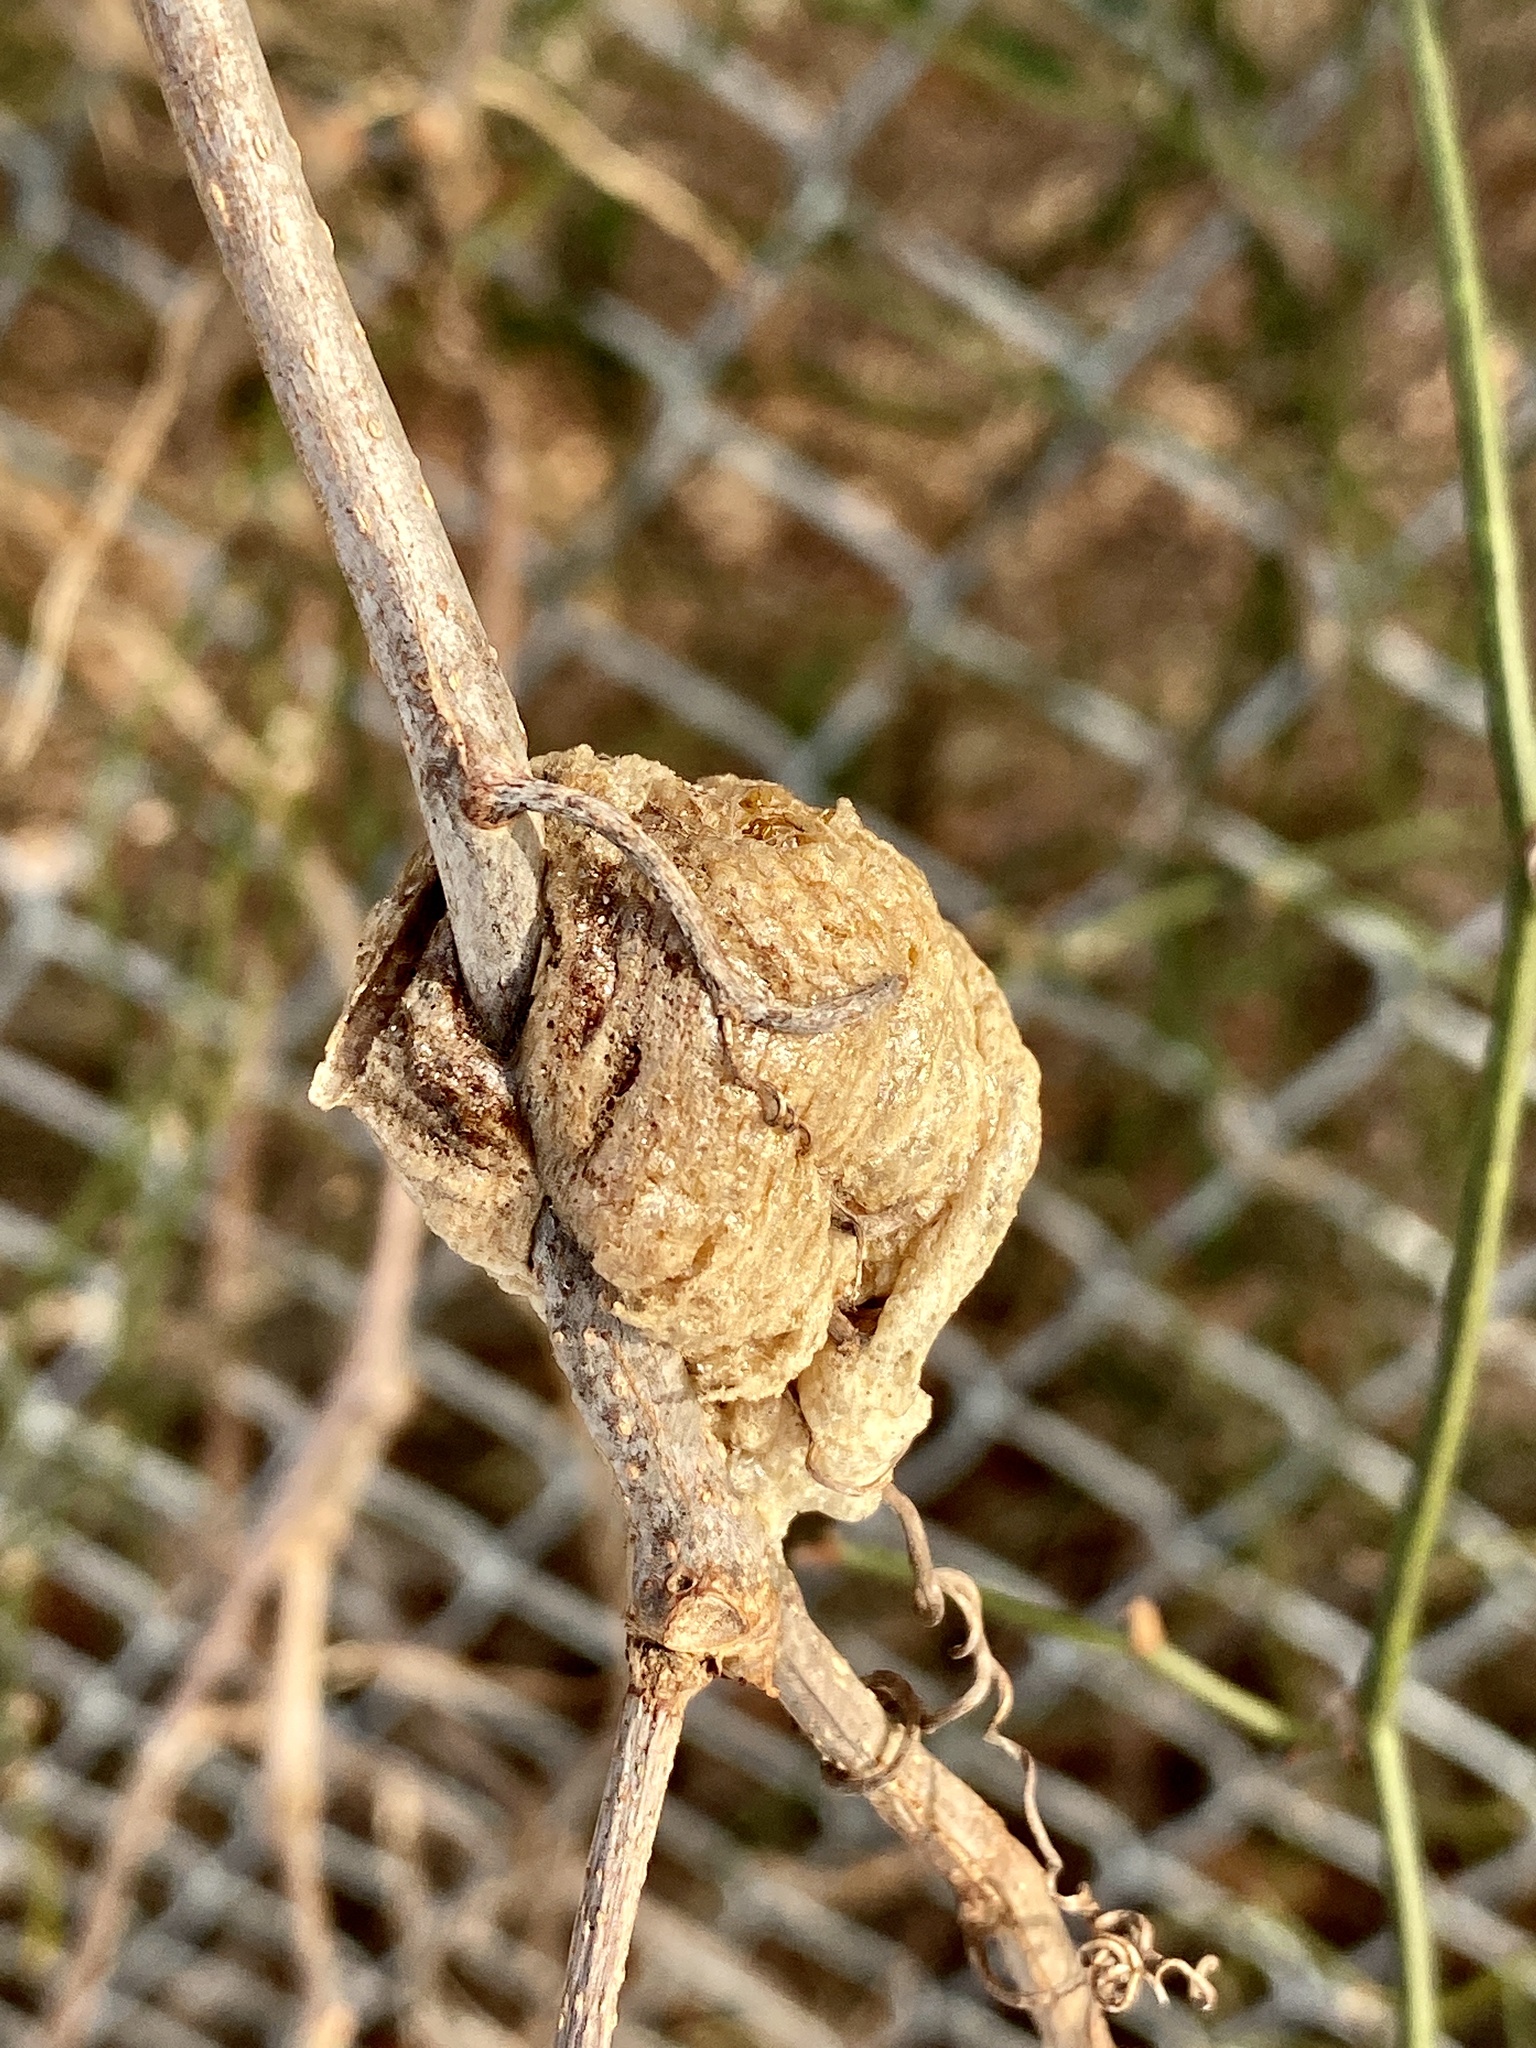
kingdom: Animalia
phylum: Arthropoda
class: Insecta
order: Mantodea
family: Mantidae
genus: Tenodera
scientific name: Tenodera sinensis
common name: Chinese mantis
